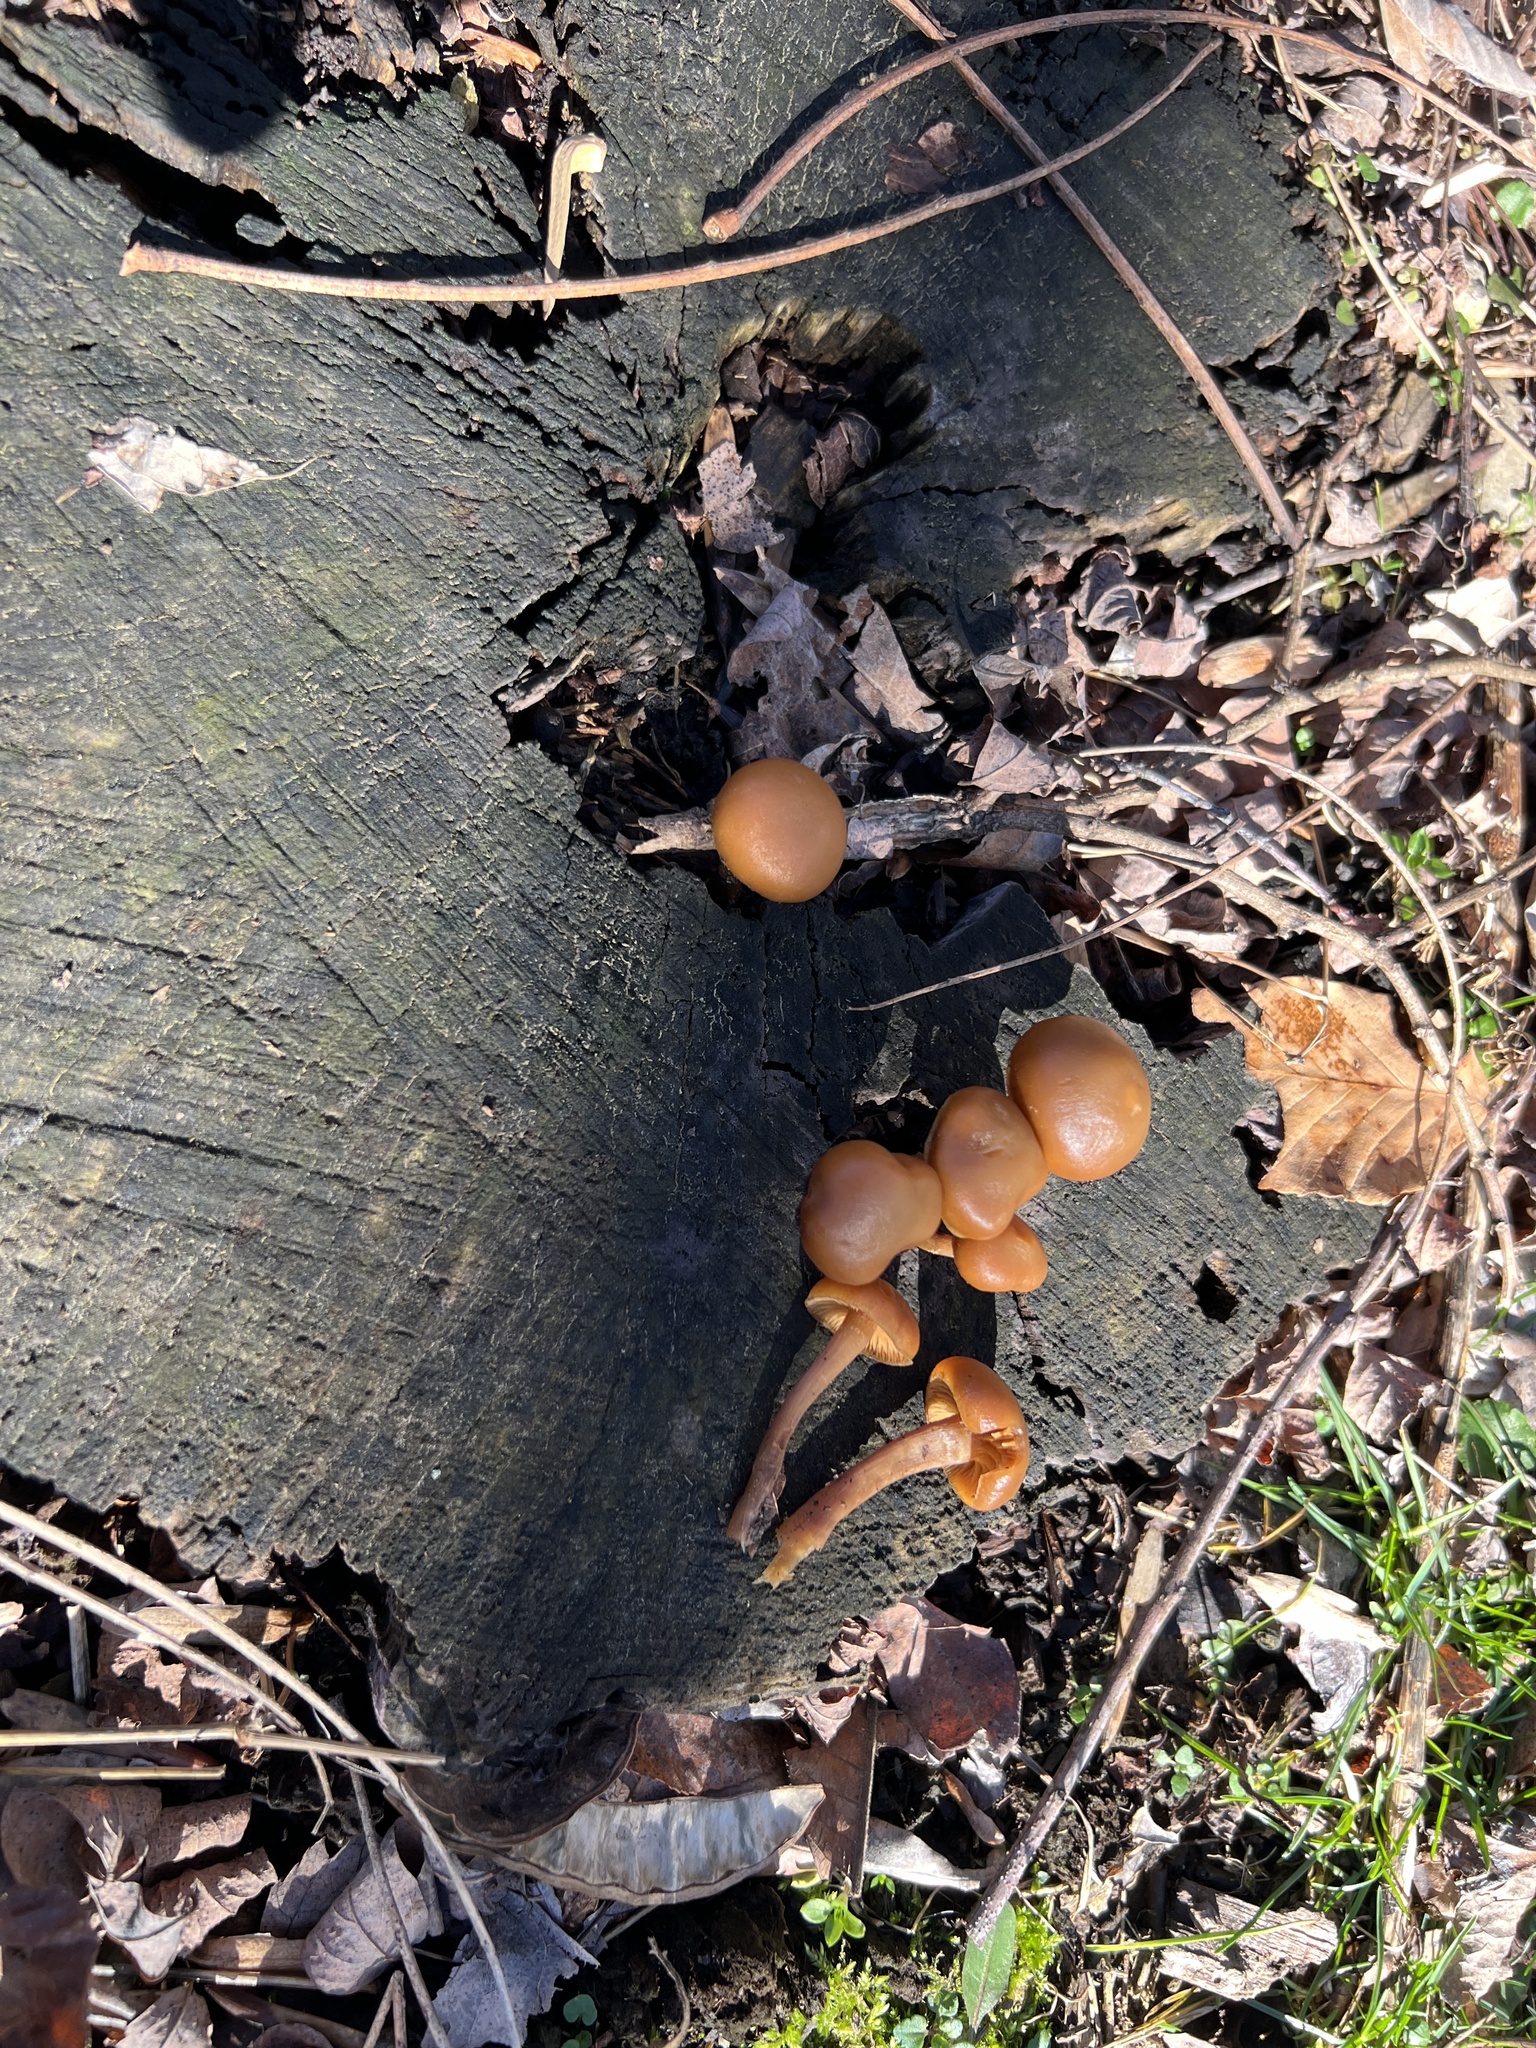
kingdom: Fungi
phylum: Basidiomycota
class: Agaricomycetes
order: Agaricales
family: Hymenogastraceae
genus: Galerina
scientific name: Galerina marginata
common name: Funeral bell
